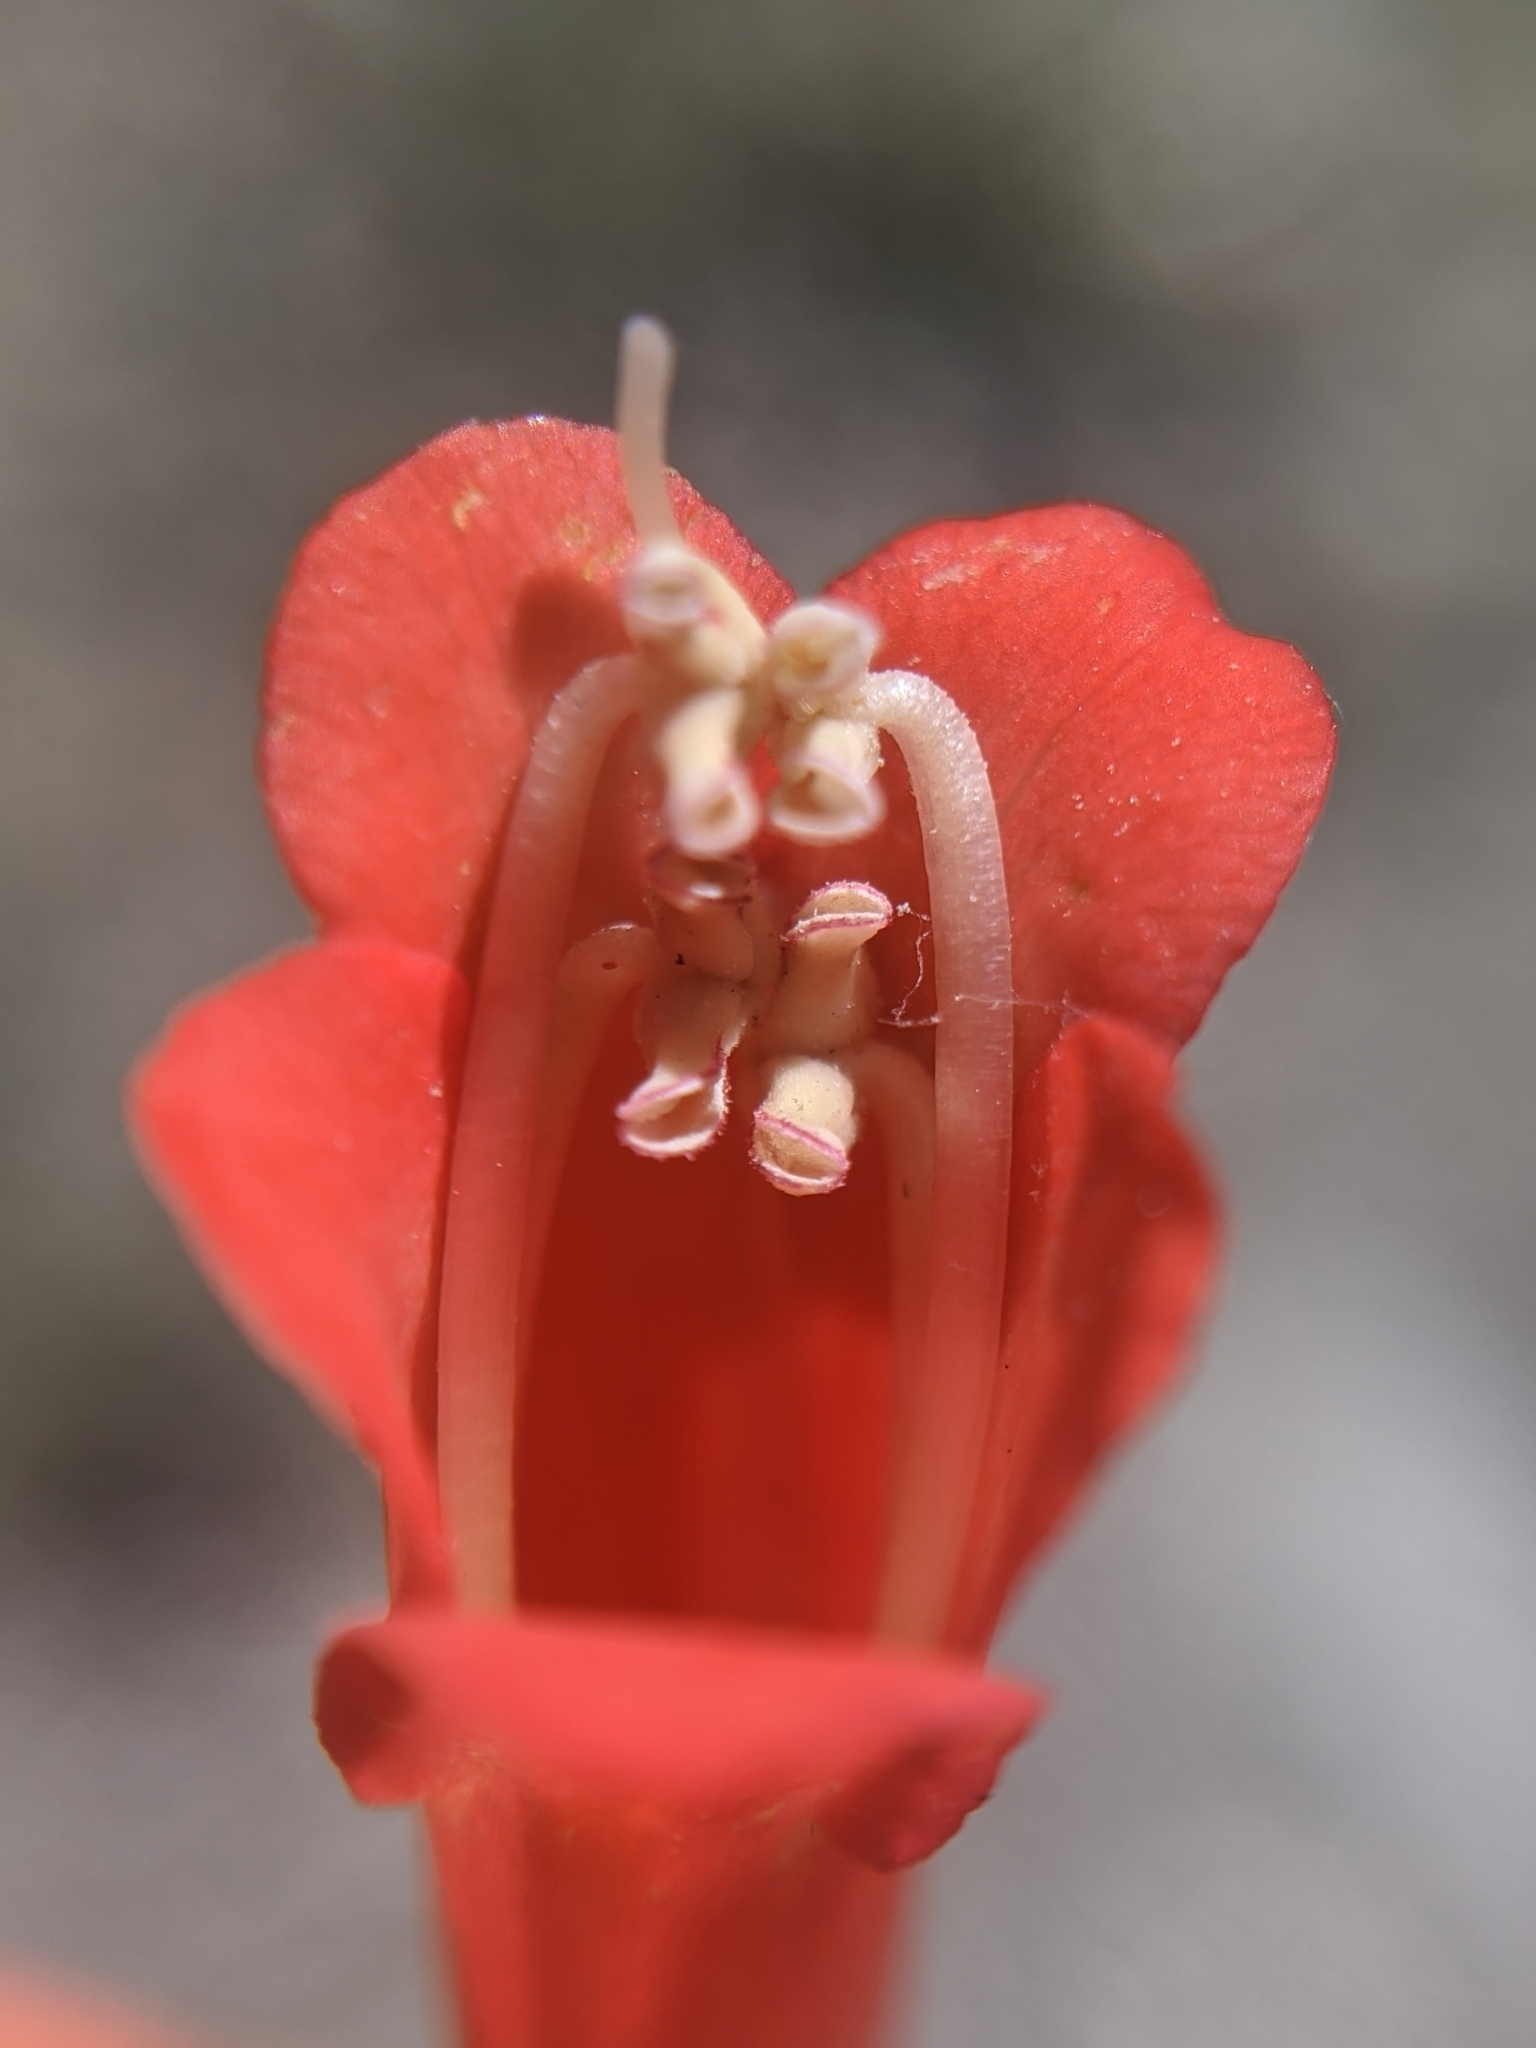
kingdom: Plantae
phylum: Tracheophyta
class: Magnoliopsida
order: Lamiales
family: Plantaginaceae
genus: Penstemon
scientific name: Penstemon eatonii
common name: Eaton's penstemon
